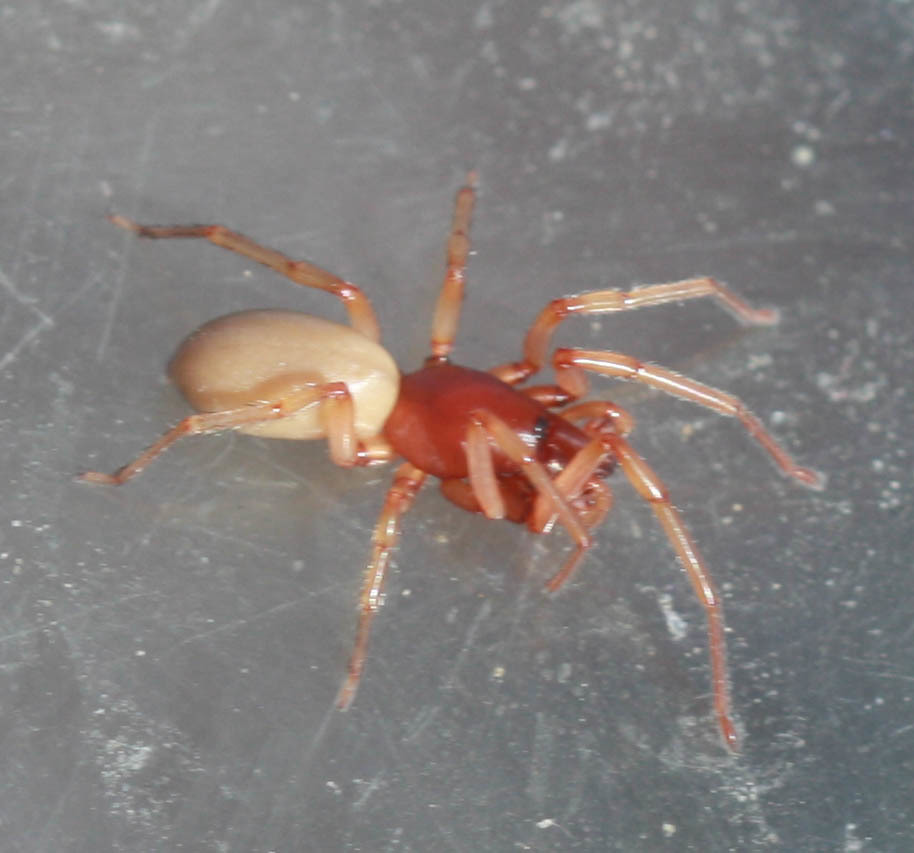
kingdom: Animalia
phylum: Arthropoda
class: Arachnida
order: Araneae
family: Dysderidae
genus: Dysdera
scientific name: Dysdera crocata
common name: Woodlouse spider
